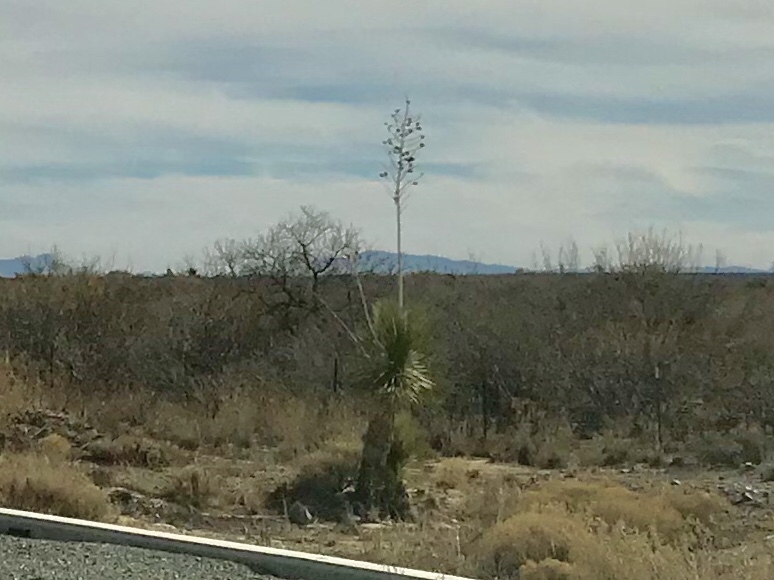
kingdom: Plantae
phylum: Tracheophyta
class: Liliopsida
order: Asparagales
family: Asparagaceae
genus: Yucca
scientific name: Yucca elata
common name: Palmella
